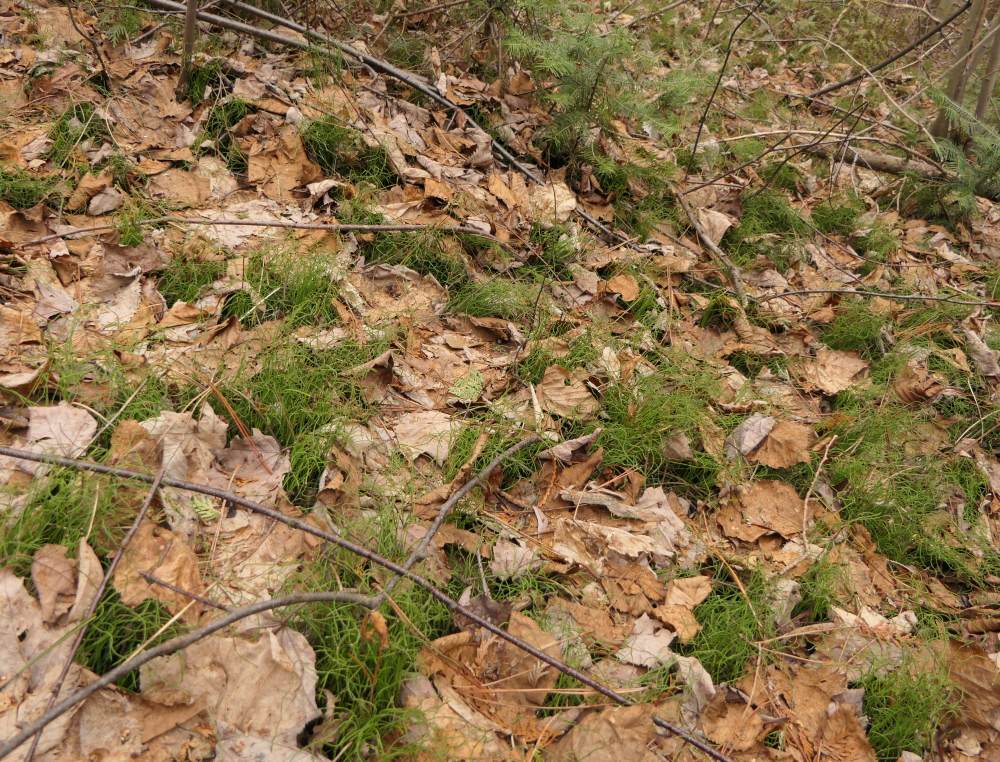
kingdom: Plantae
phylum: Tracheophyta
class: Polypodiopsida
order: Equisetales
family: Equisetaceae
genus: Equisetum
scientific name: Equisetum scirpoides
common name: Delicate horsetail
